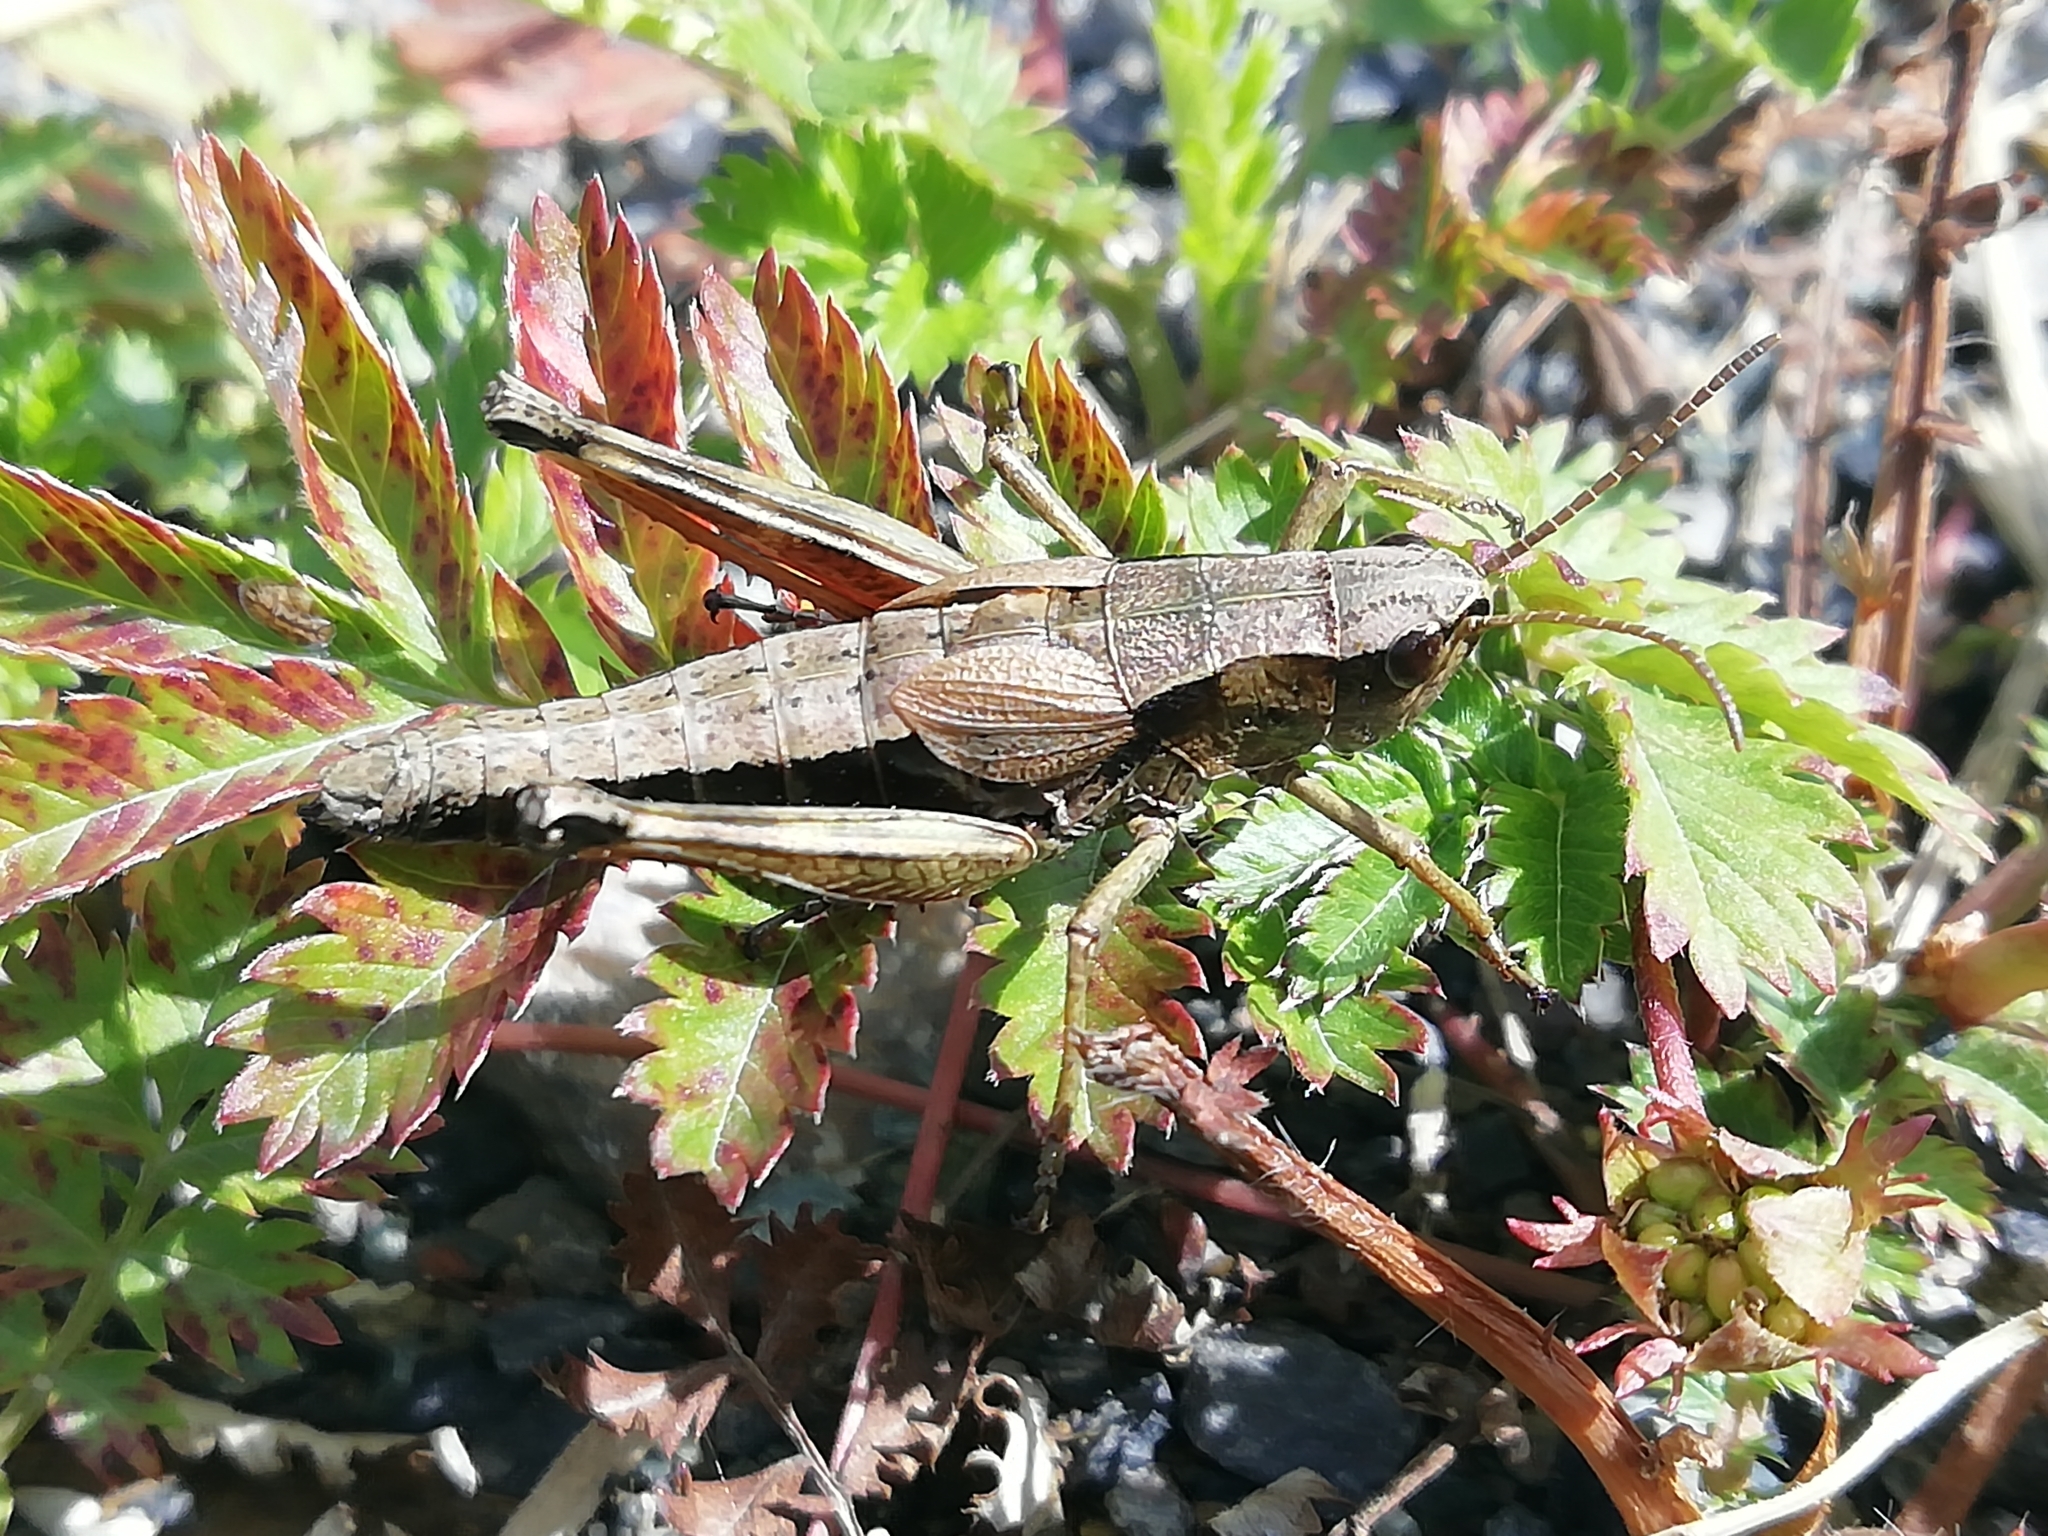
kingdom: Animalia
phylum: Arthropoda
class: Insecta
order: Orthoptera
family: Acrididae
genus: Podismopsis
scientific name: Podismopsis poppiusi
